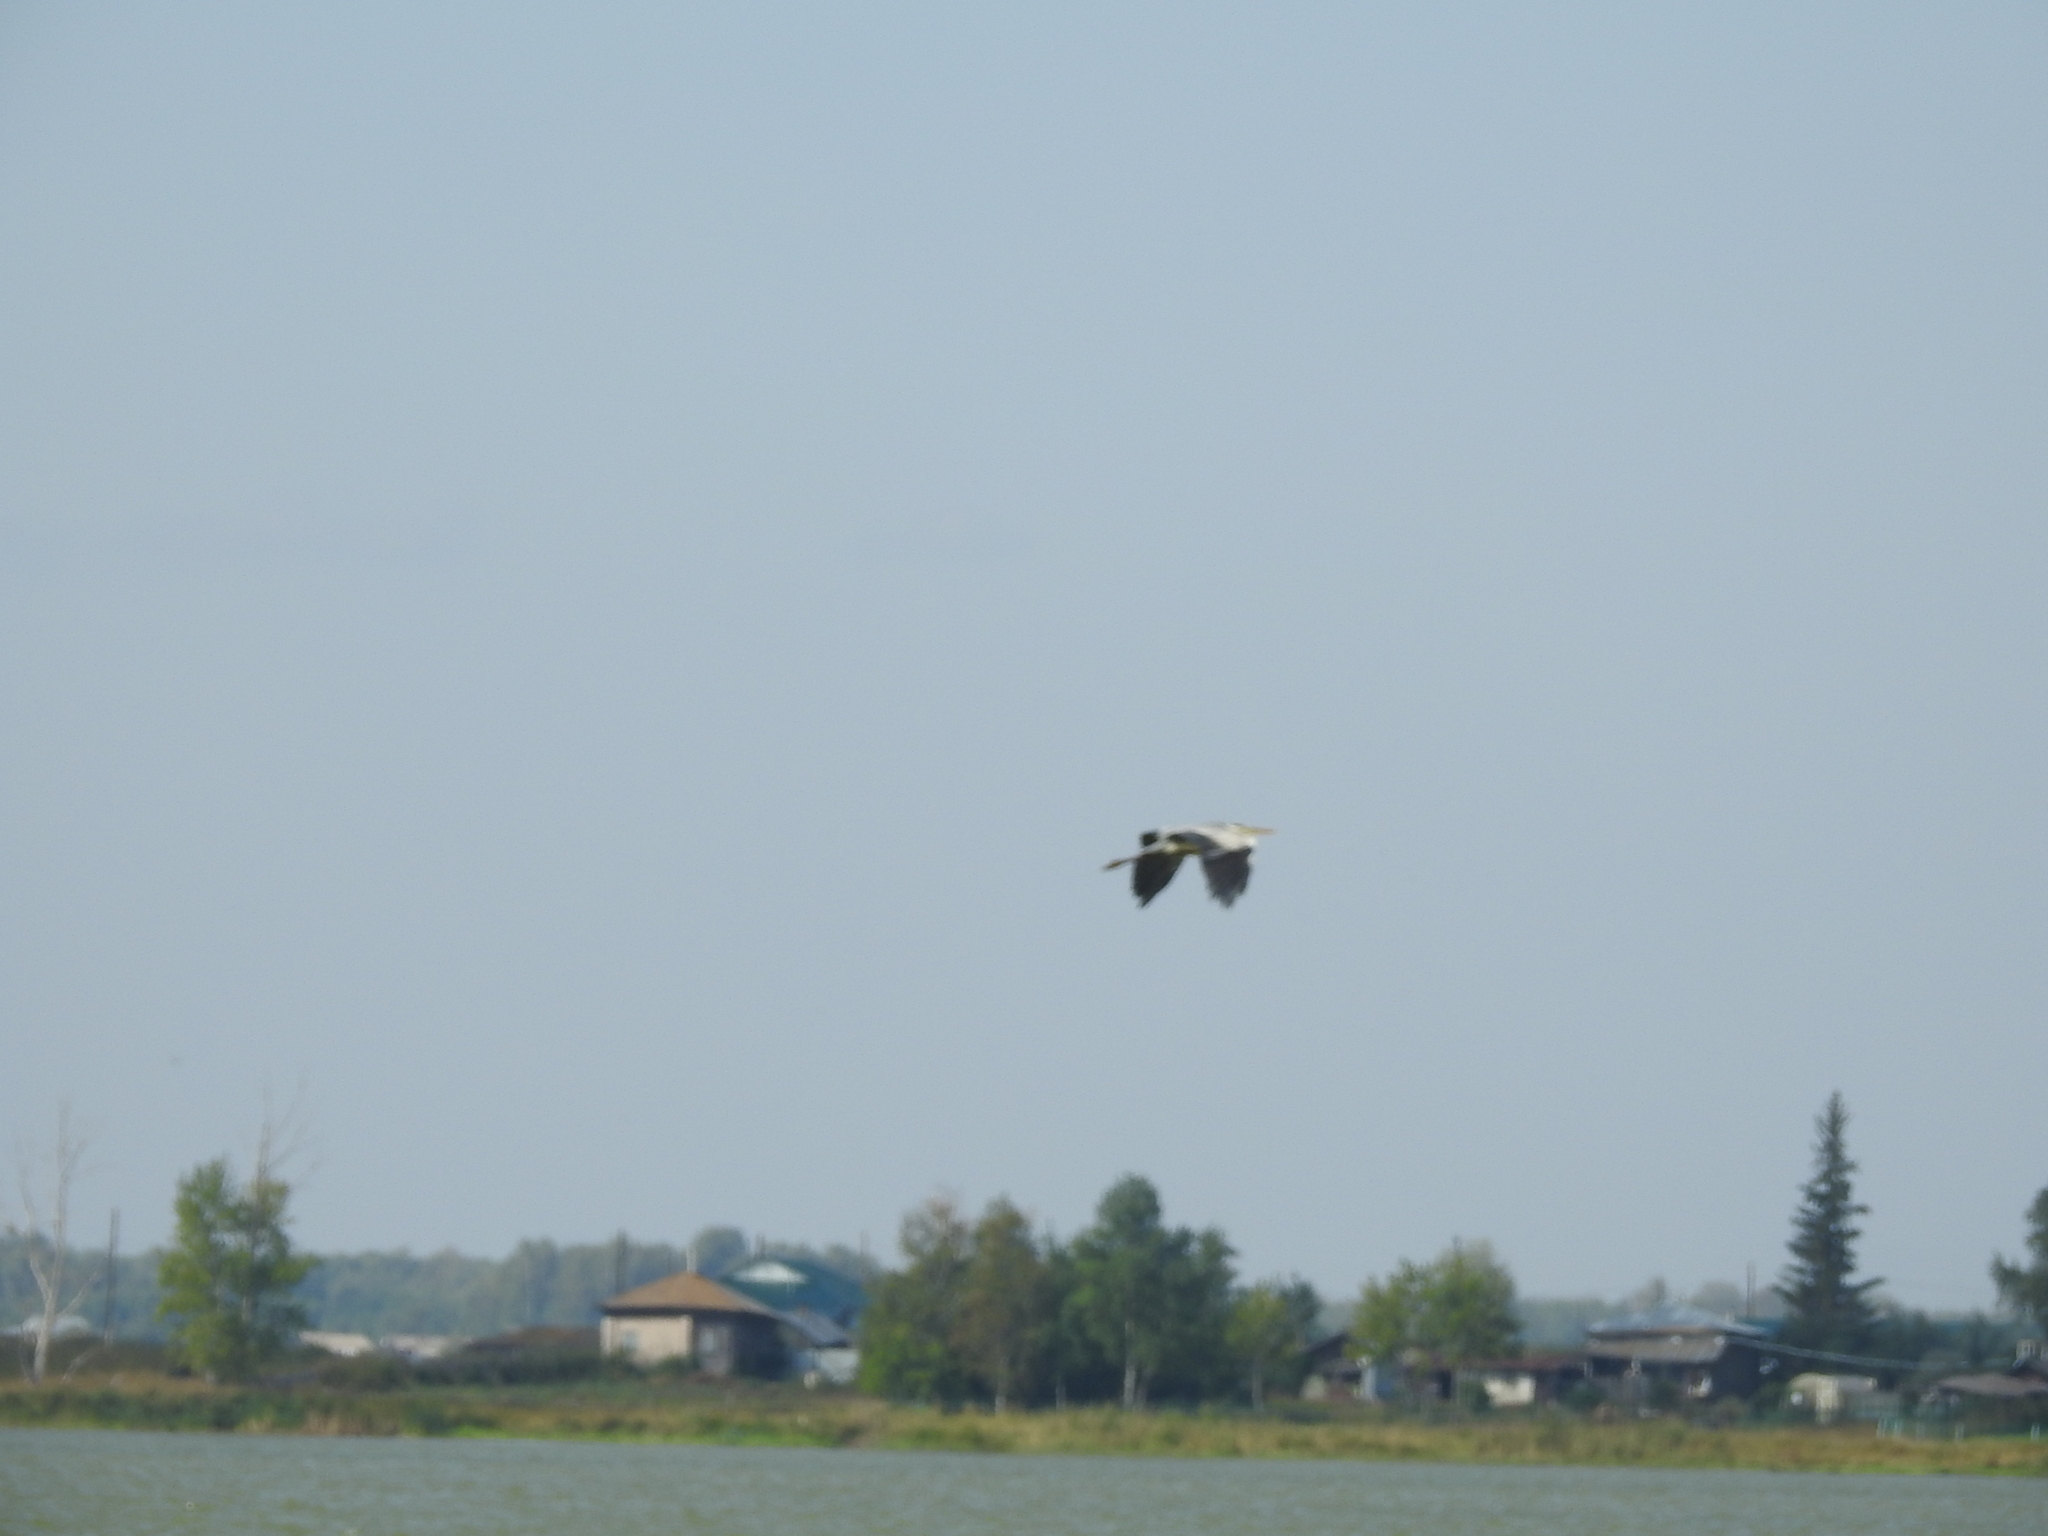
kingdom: Animalia
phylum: Chordata
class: Aves
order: Pelecaniformes
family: Ardeidae
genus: Ardea
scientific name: Ardea cinerea
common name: Grey heron
